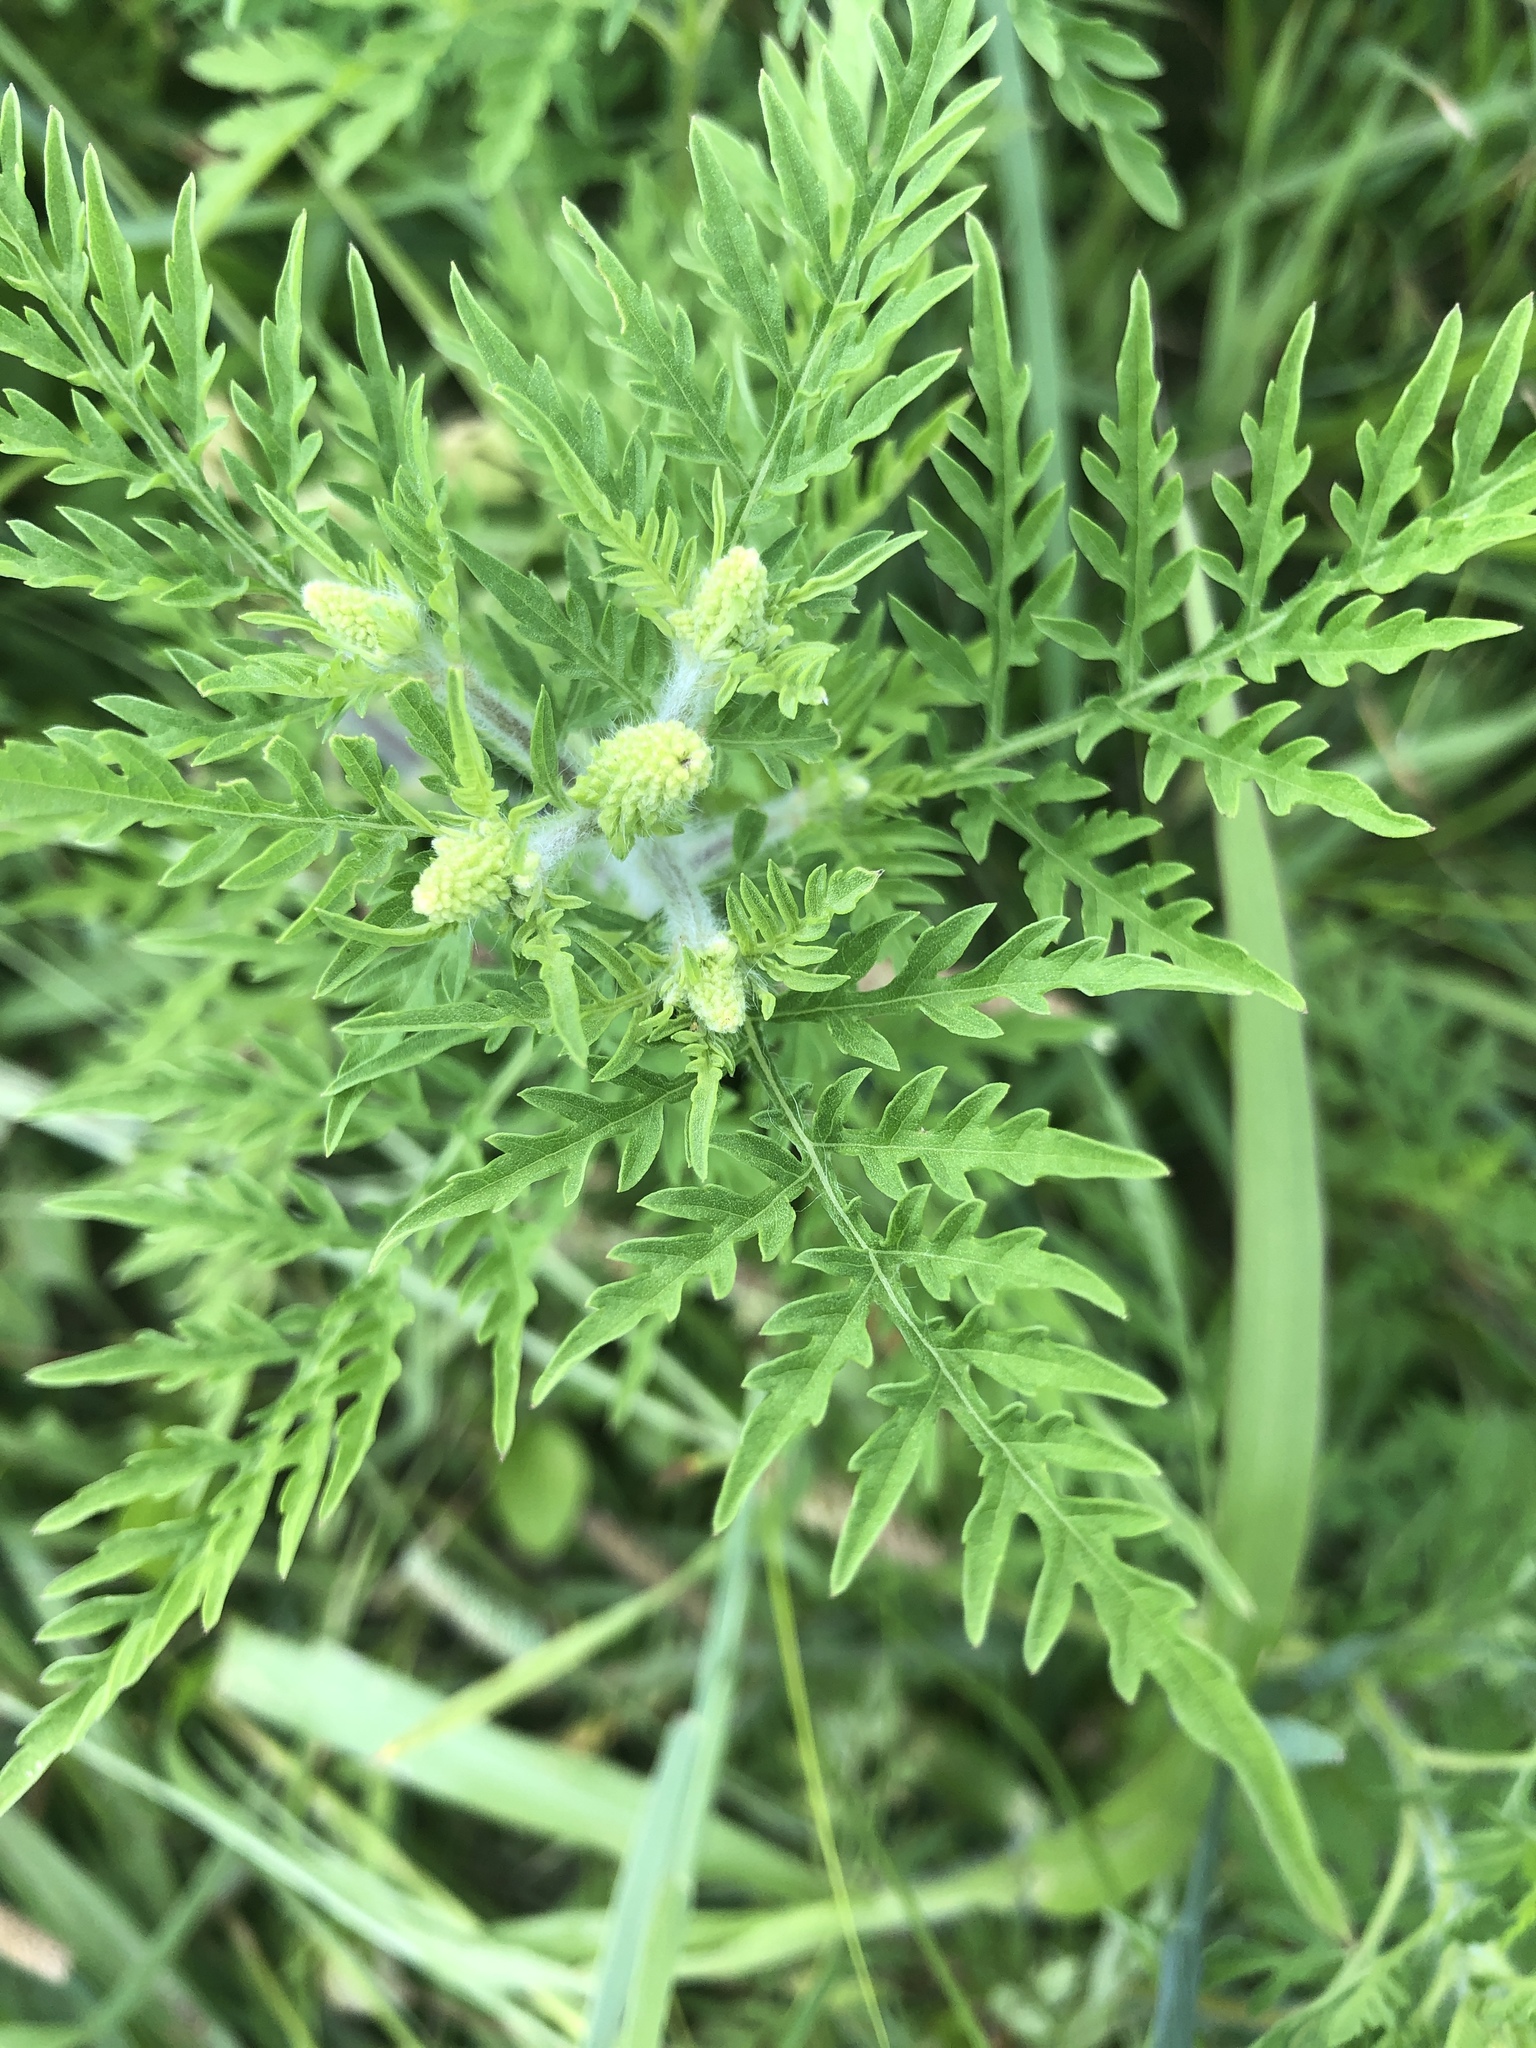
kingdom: Plantae
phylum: Tracheophyta
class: Magnoliopsida
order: Asterales
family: Asteraceae
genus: Ambrosia
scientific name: Ambrosia artemisiifolia
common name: Annual ragweed
